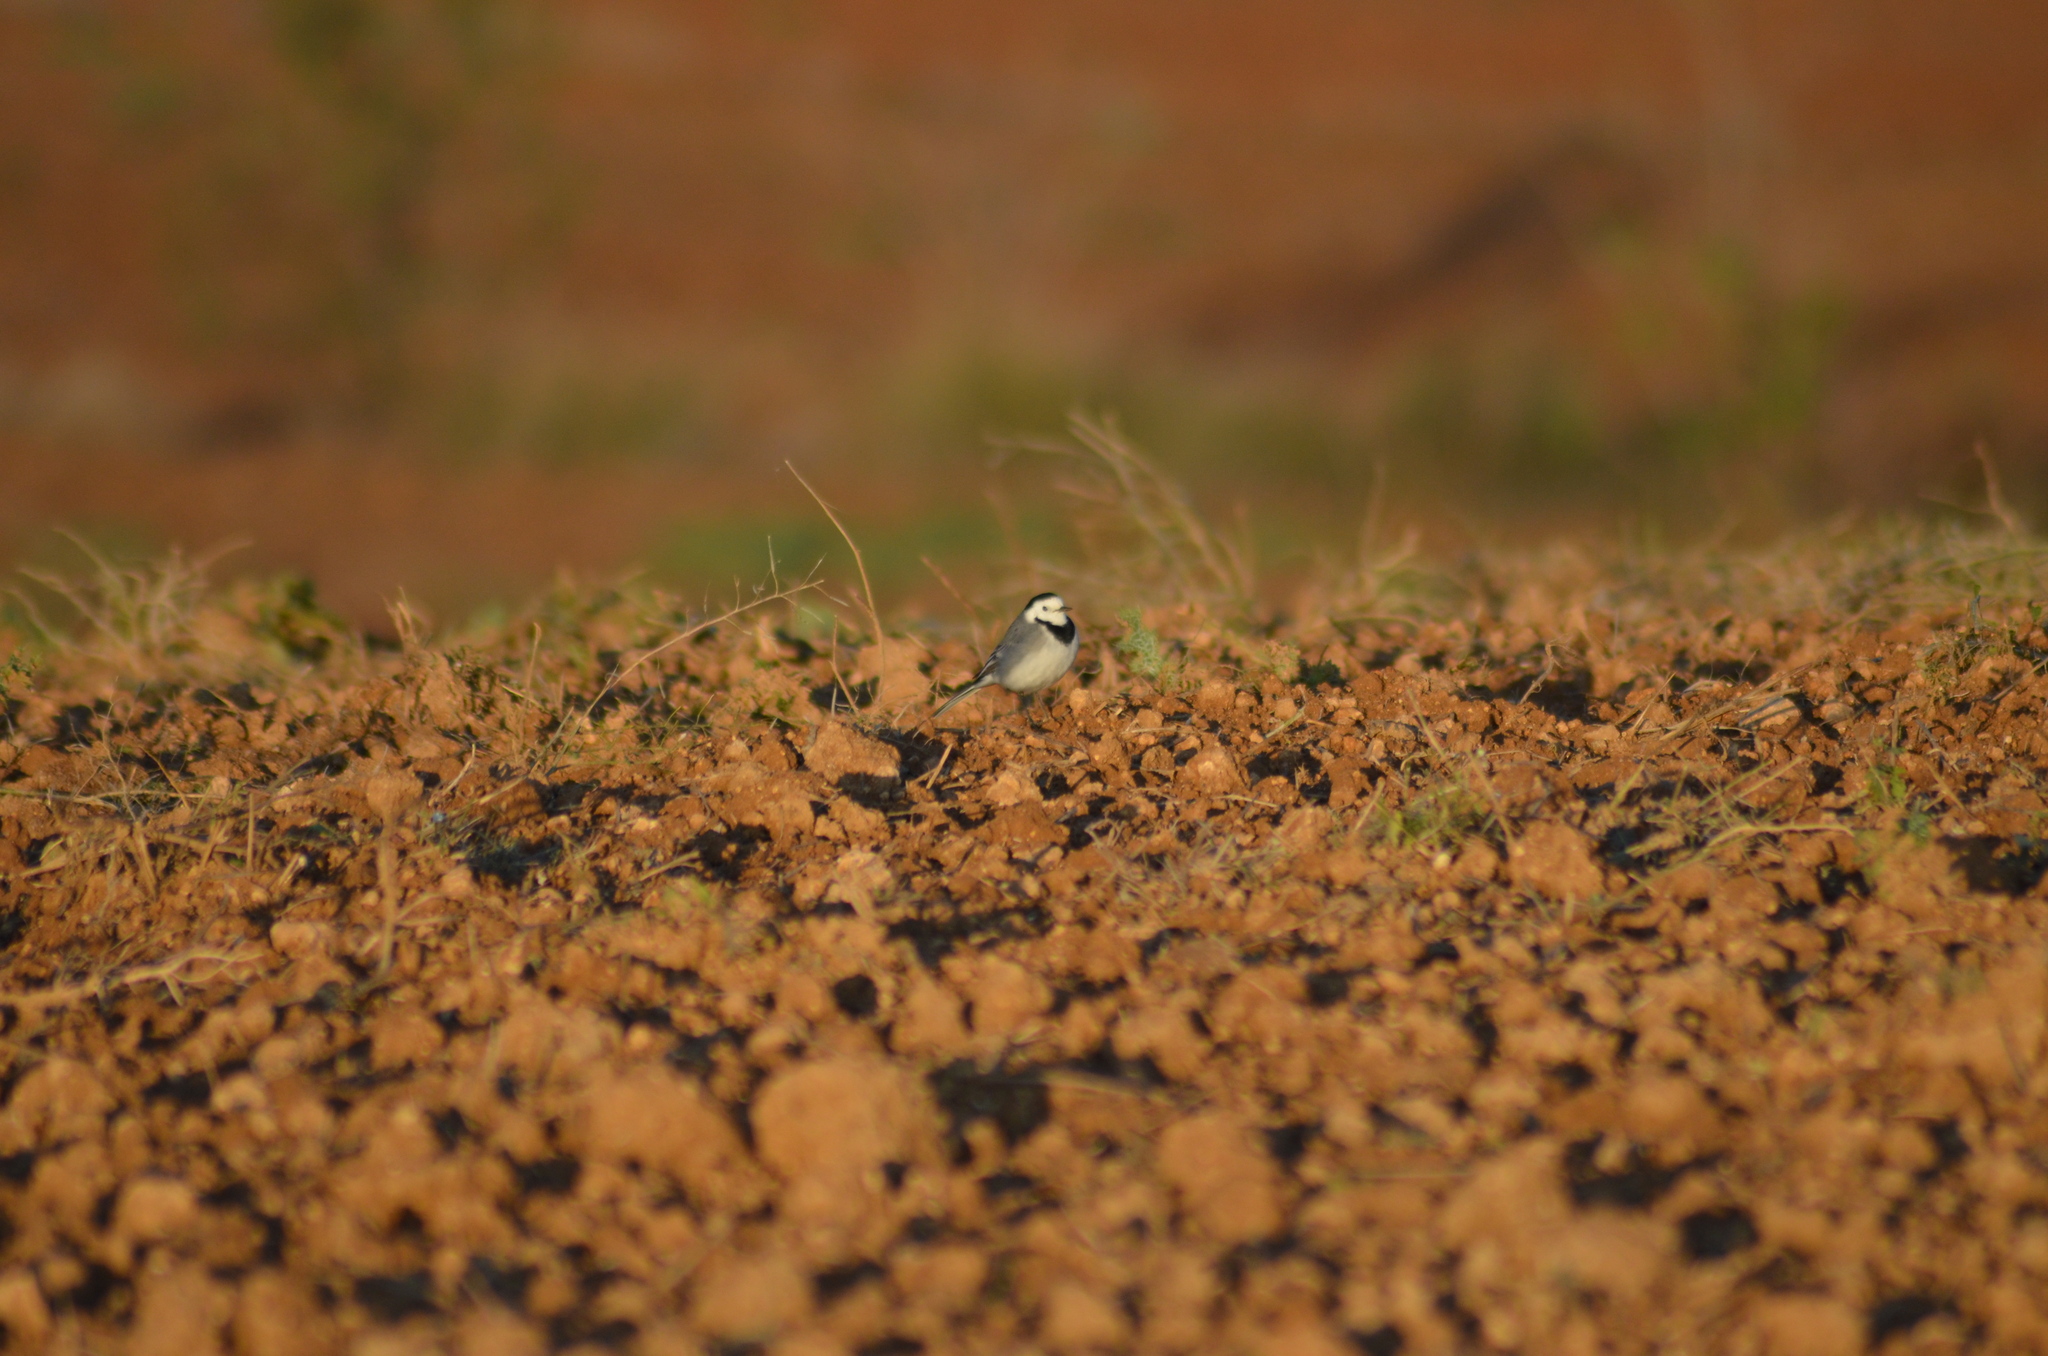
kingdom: Animalia
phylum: Chordata
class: Aves
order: Passeriformes
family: Motacillidae
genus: Motacilla
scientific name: Motacilla alba
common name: White wagtail
